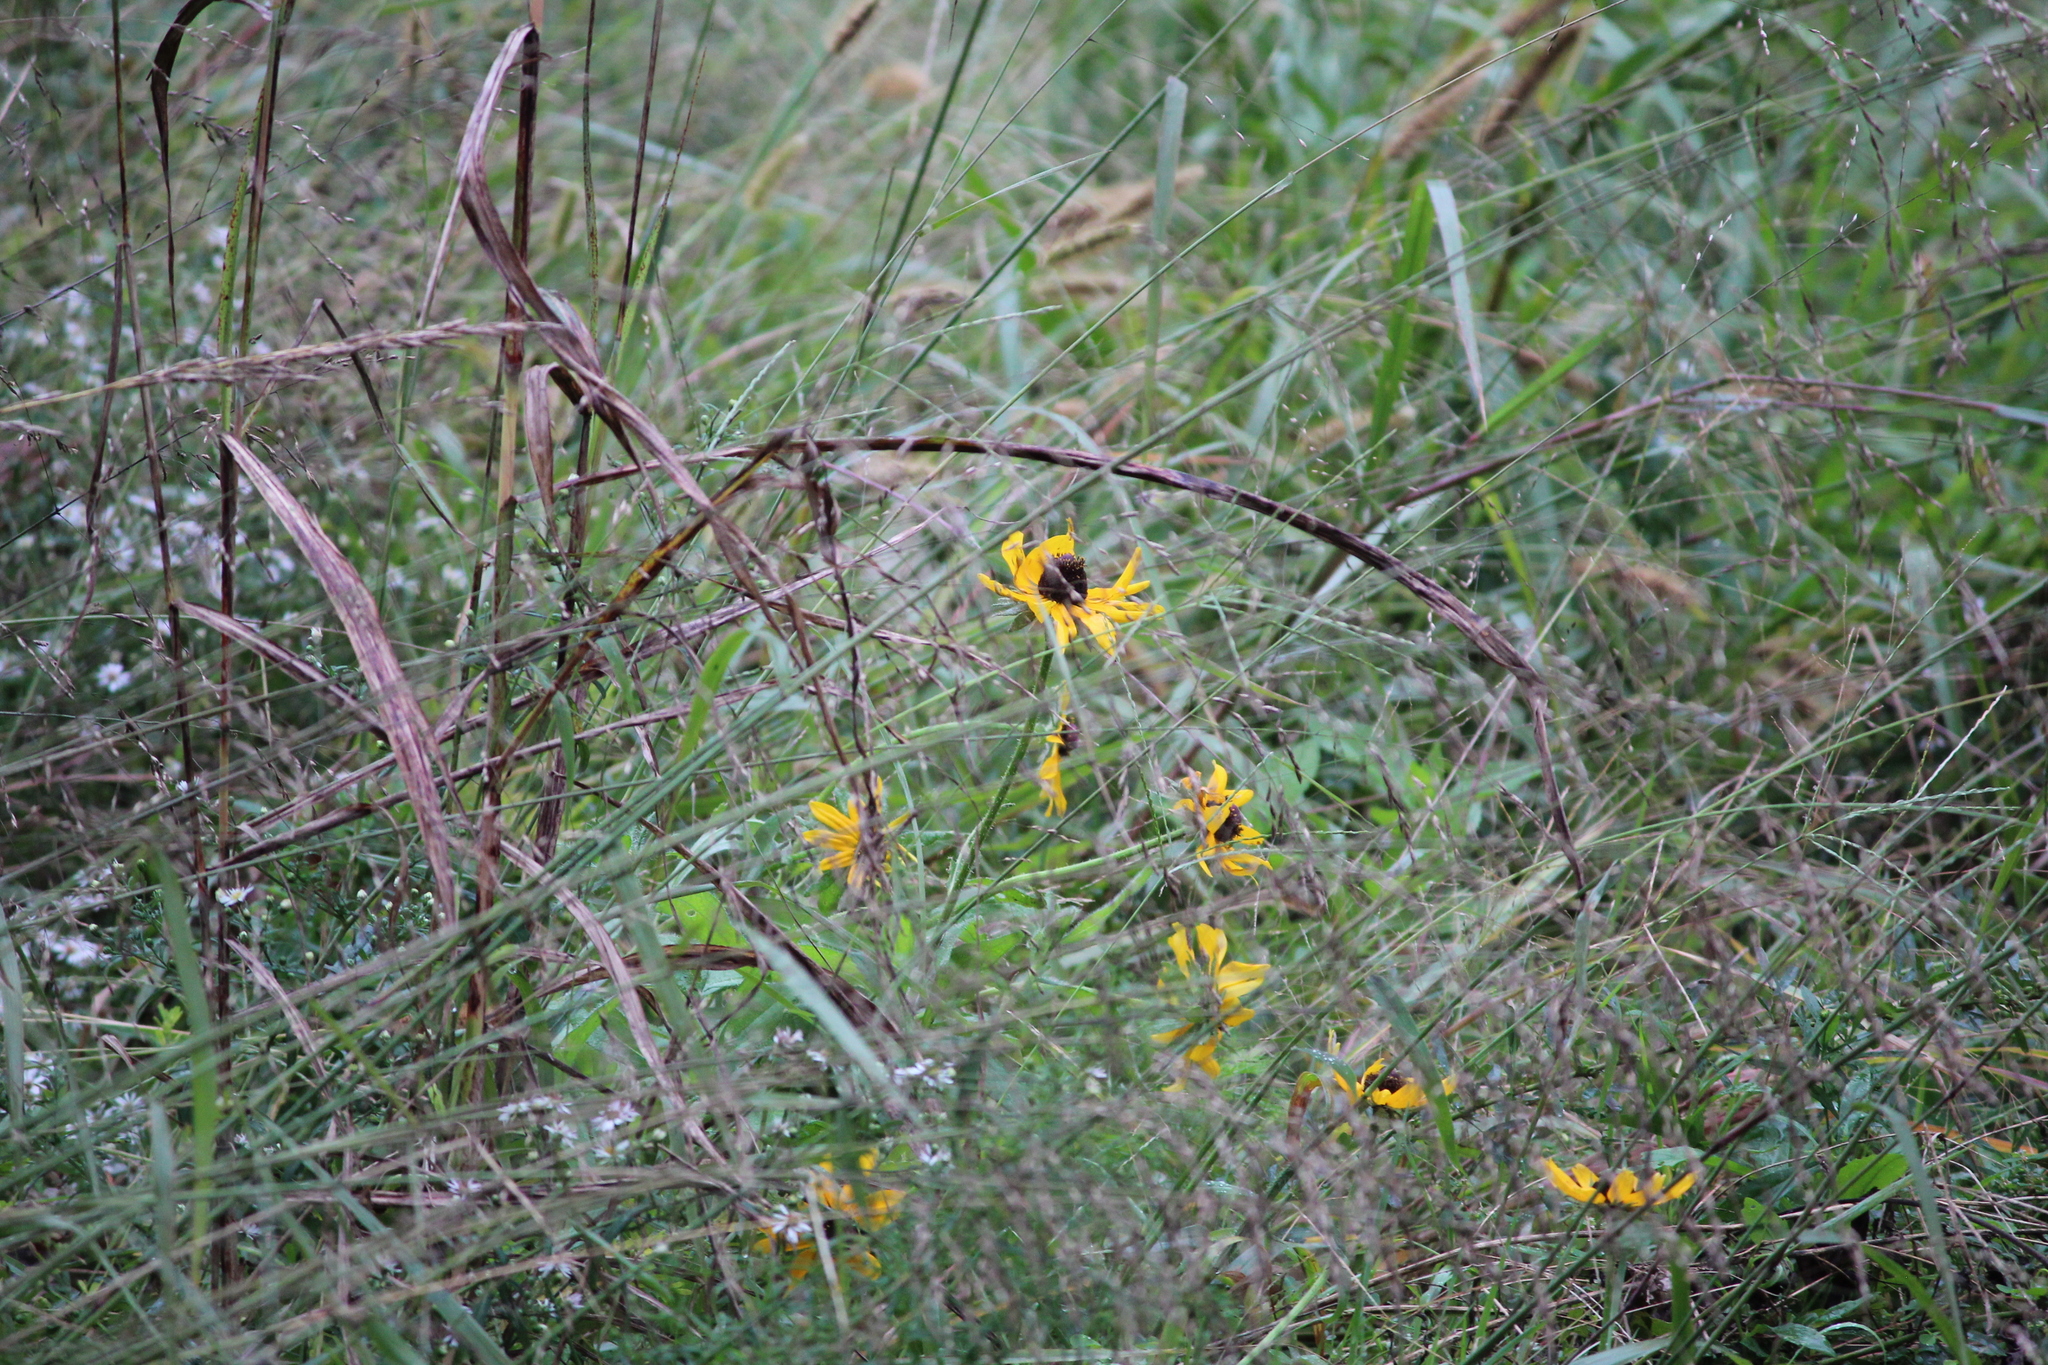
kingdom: Plantae
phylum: Tracheophyta
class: Magnoliopsida
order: Asterales
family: Asteraceae
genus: Rudbeckia
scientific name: Rudbeckia hirta
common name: Black-eyed-susan
